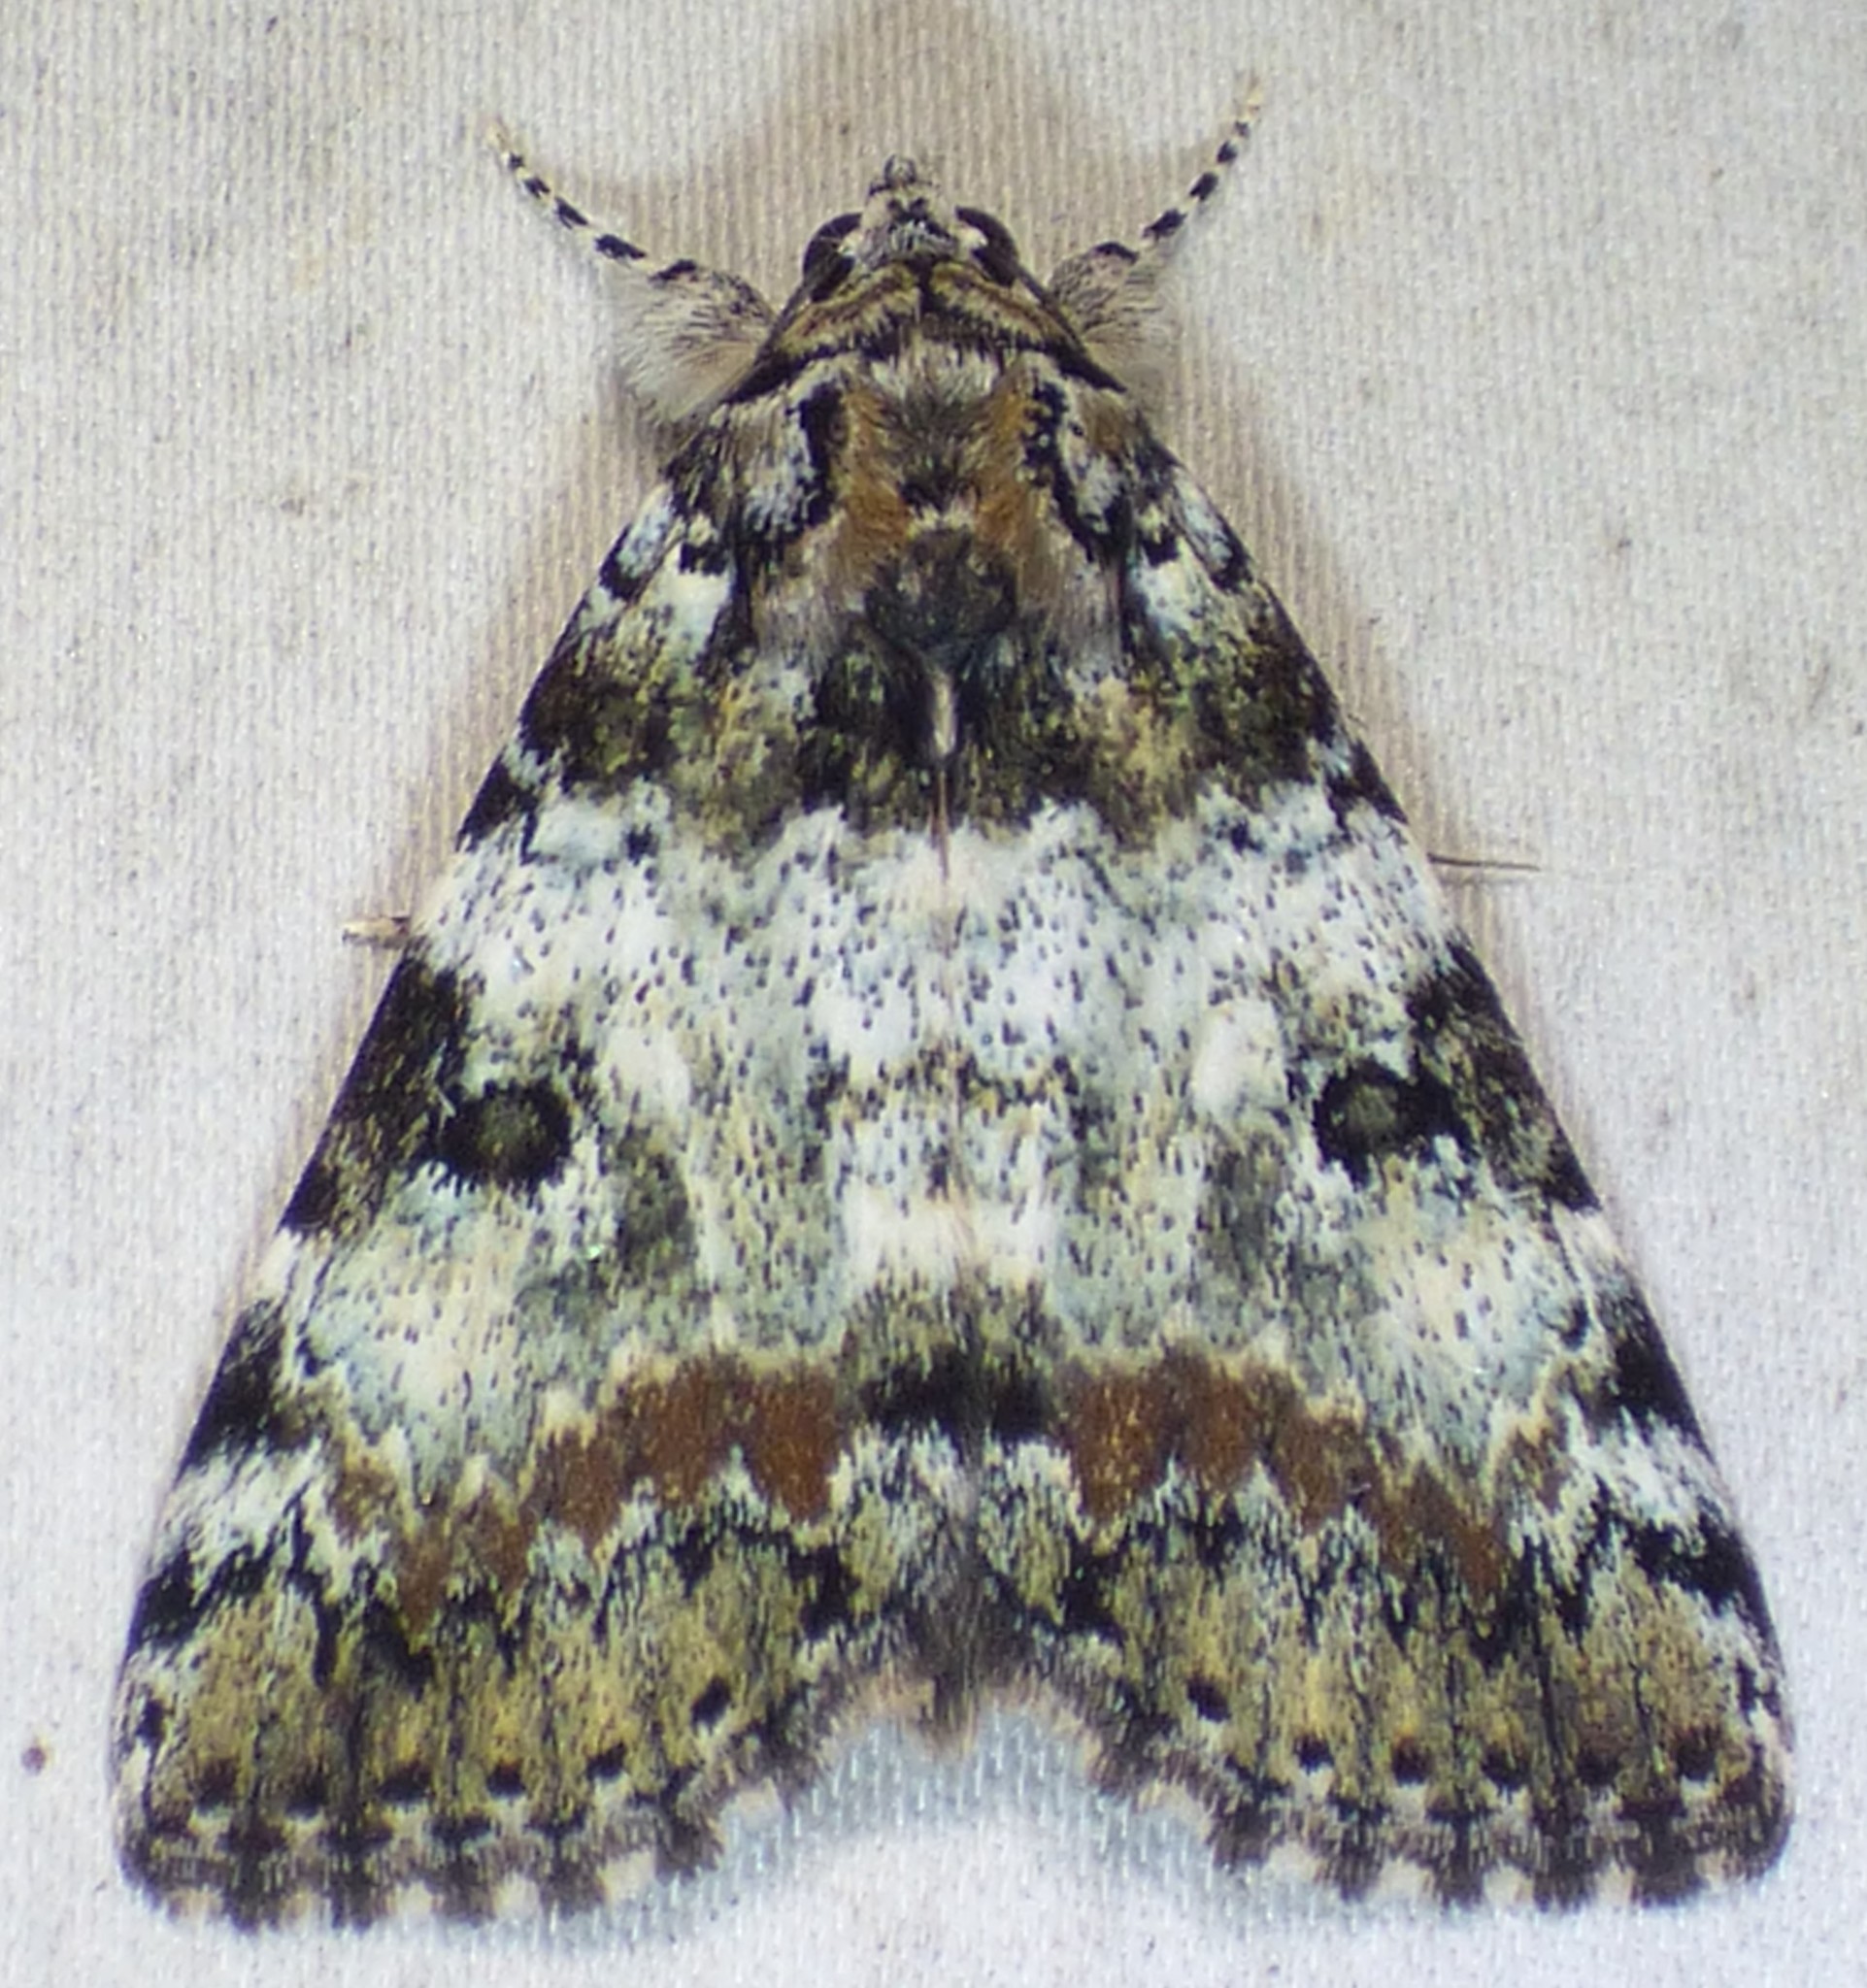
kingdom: Animalia
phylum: Arthropoda
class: Insecta
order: Lepidoptera
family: Erebidae
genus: Catocala
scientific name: Catocala connubialis
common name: Connubial underwing
